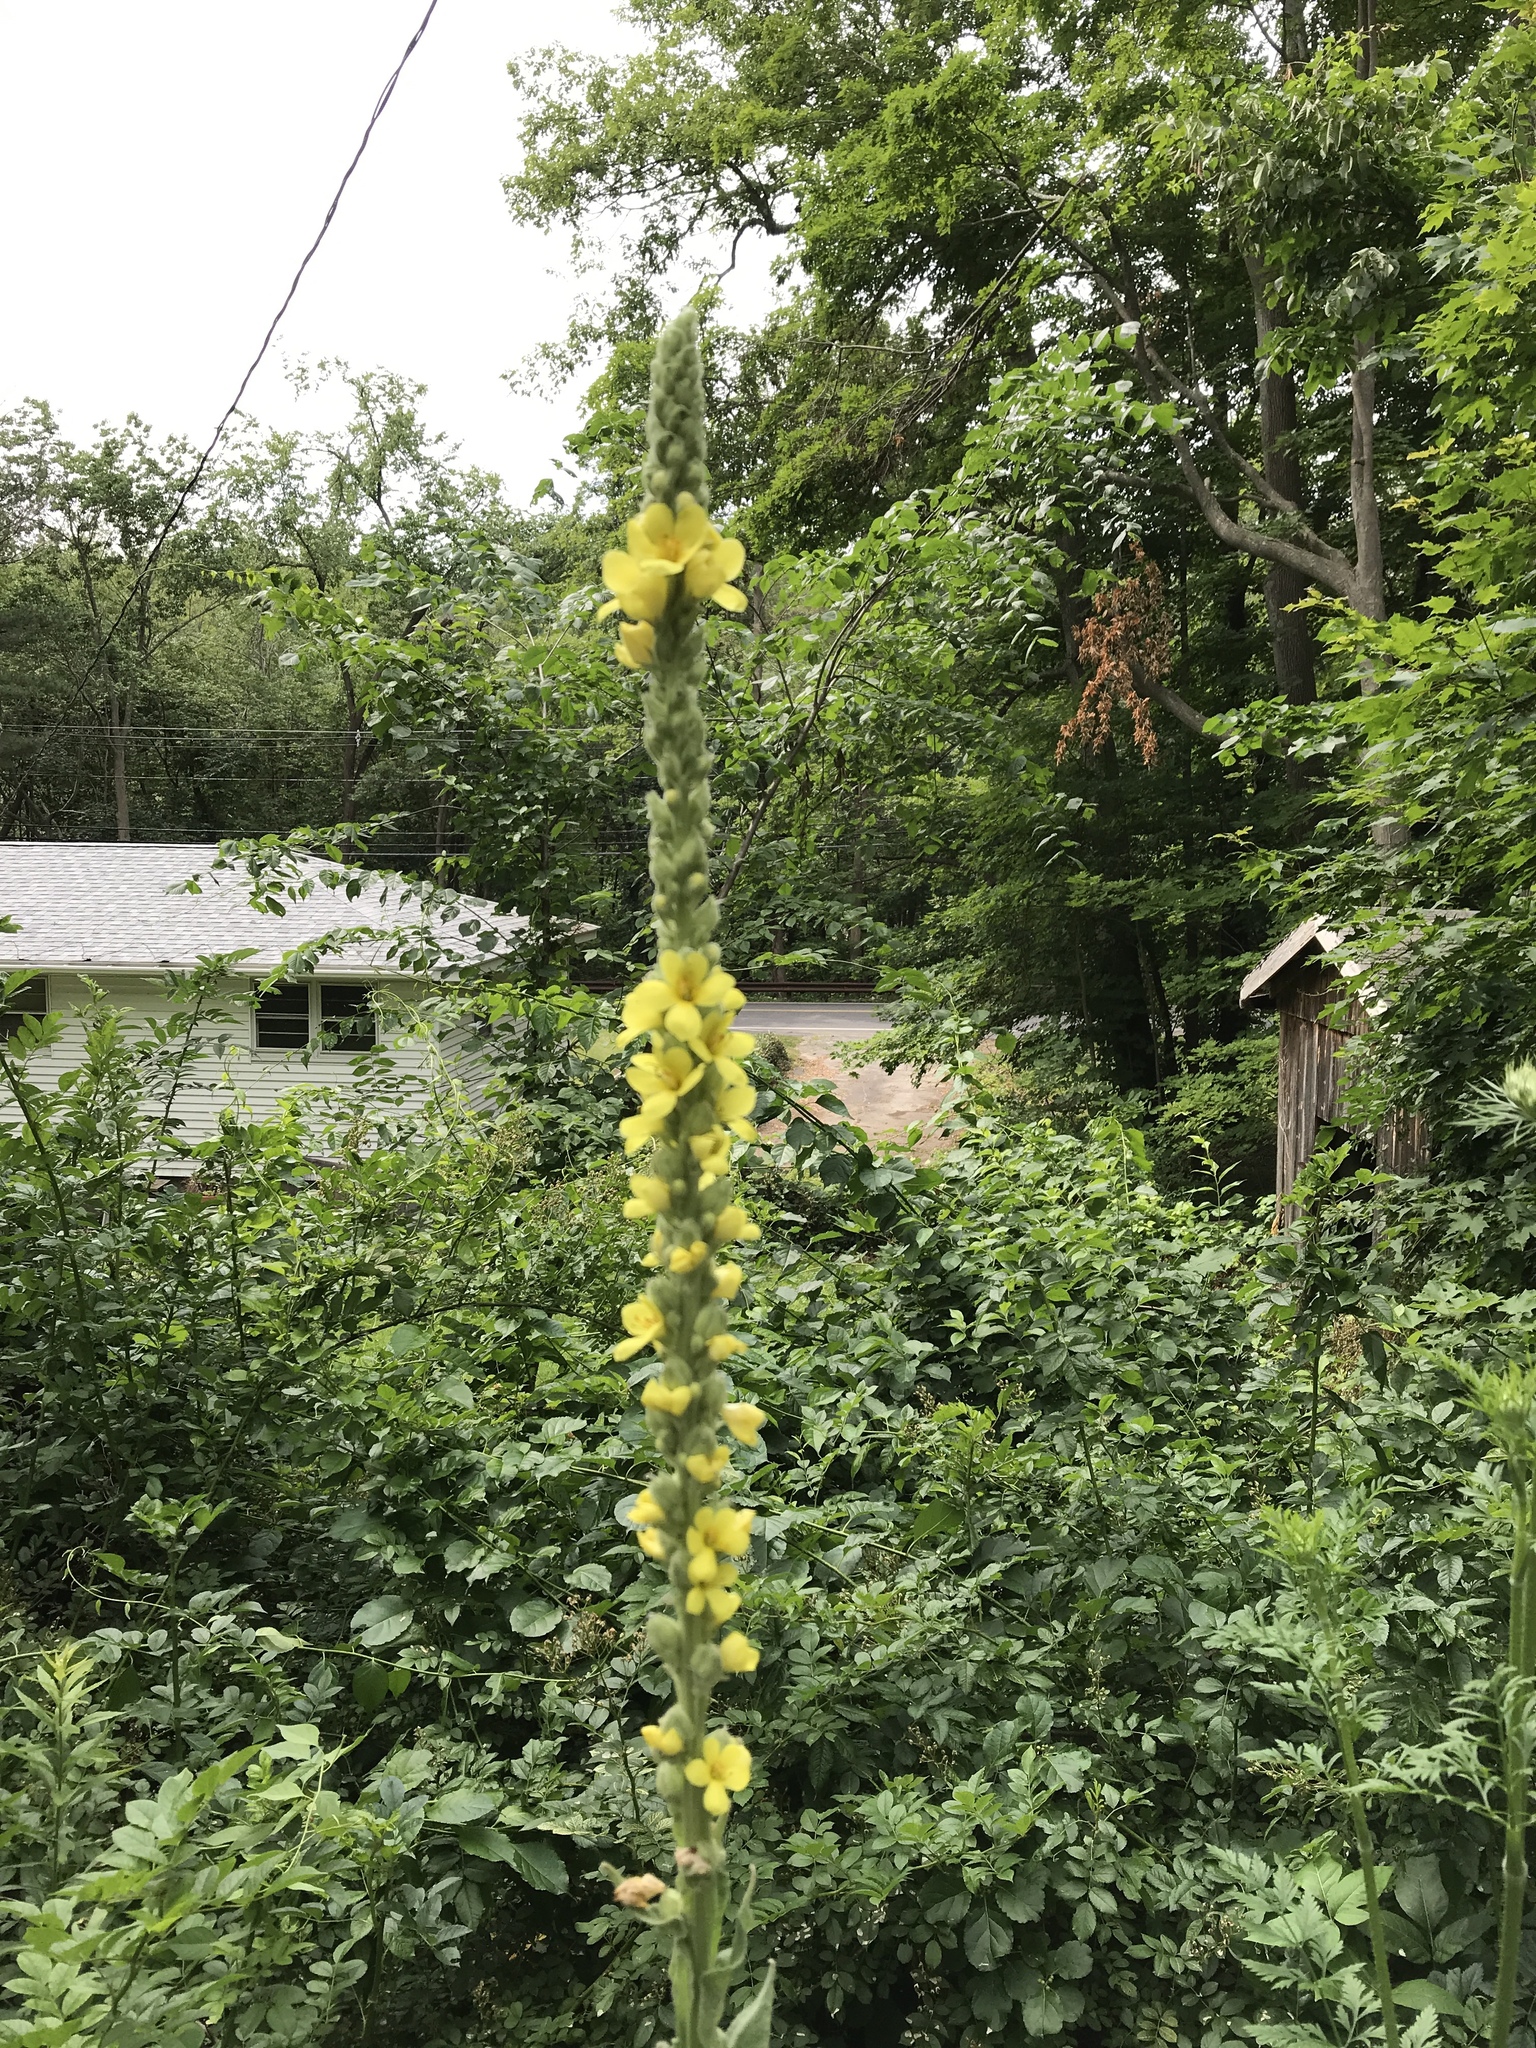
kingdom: Plantae
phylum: Tracheophyta
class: Magnoliopsida
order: Lamiales
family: Scrophulariaceae
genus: Verbascum
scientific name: Verbascum thapsus
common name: Common mullein
